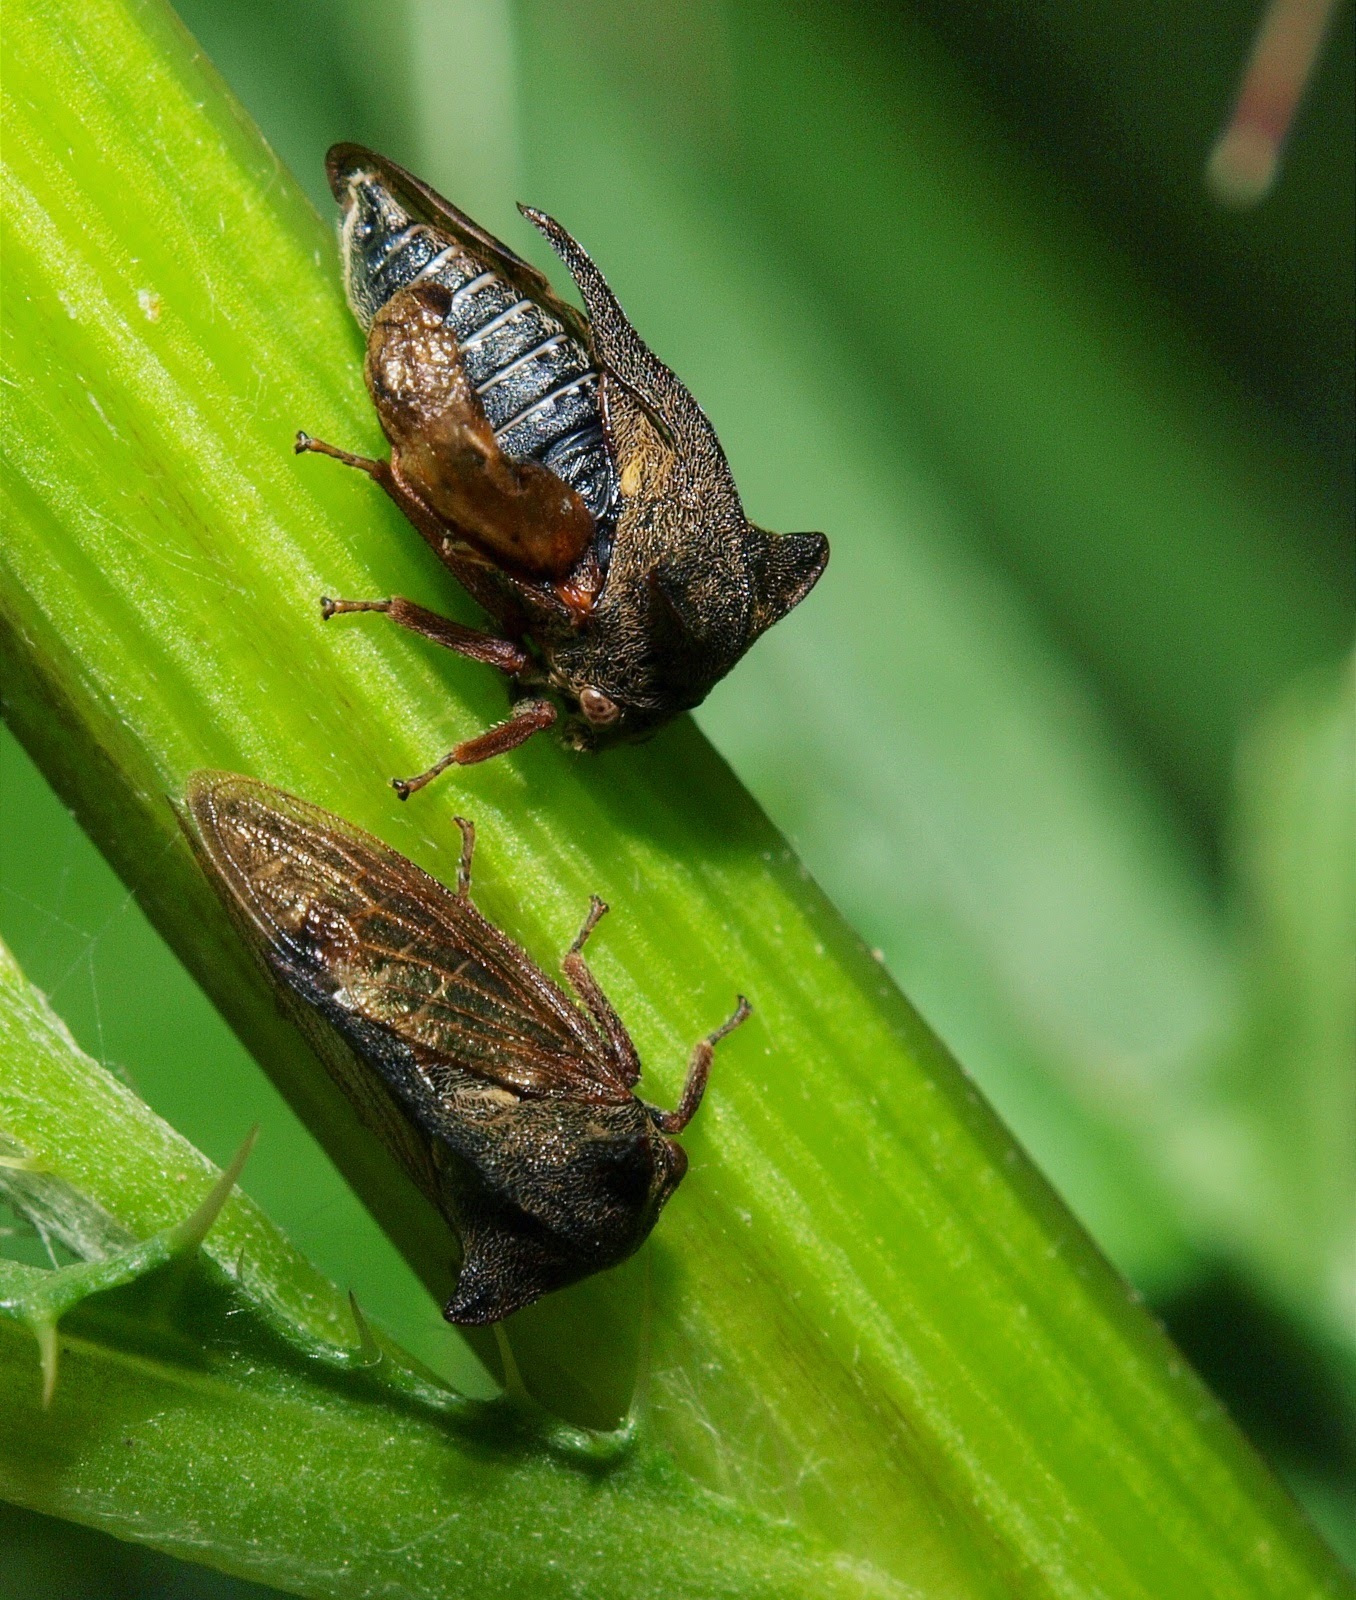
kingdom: Animalia
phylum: Arthropoda
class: Insecta
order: Hemiptera
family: Membracidae
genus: Centrotus
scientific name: Centrotus cornuta
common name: Treehopper
